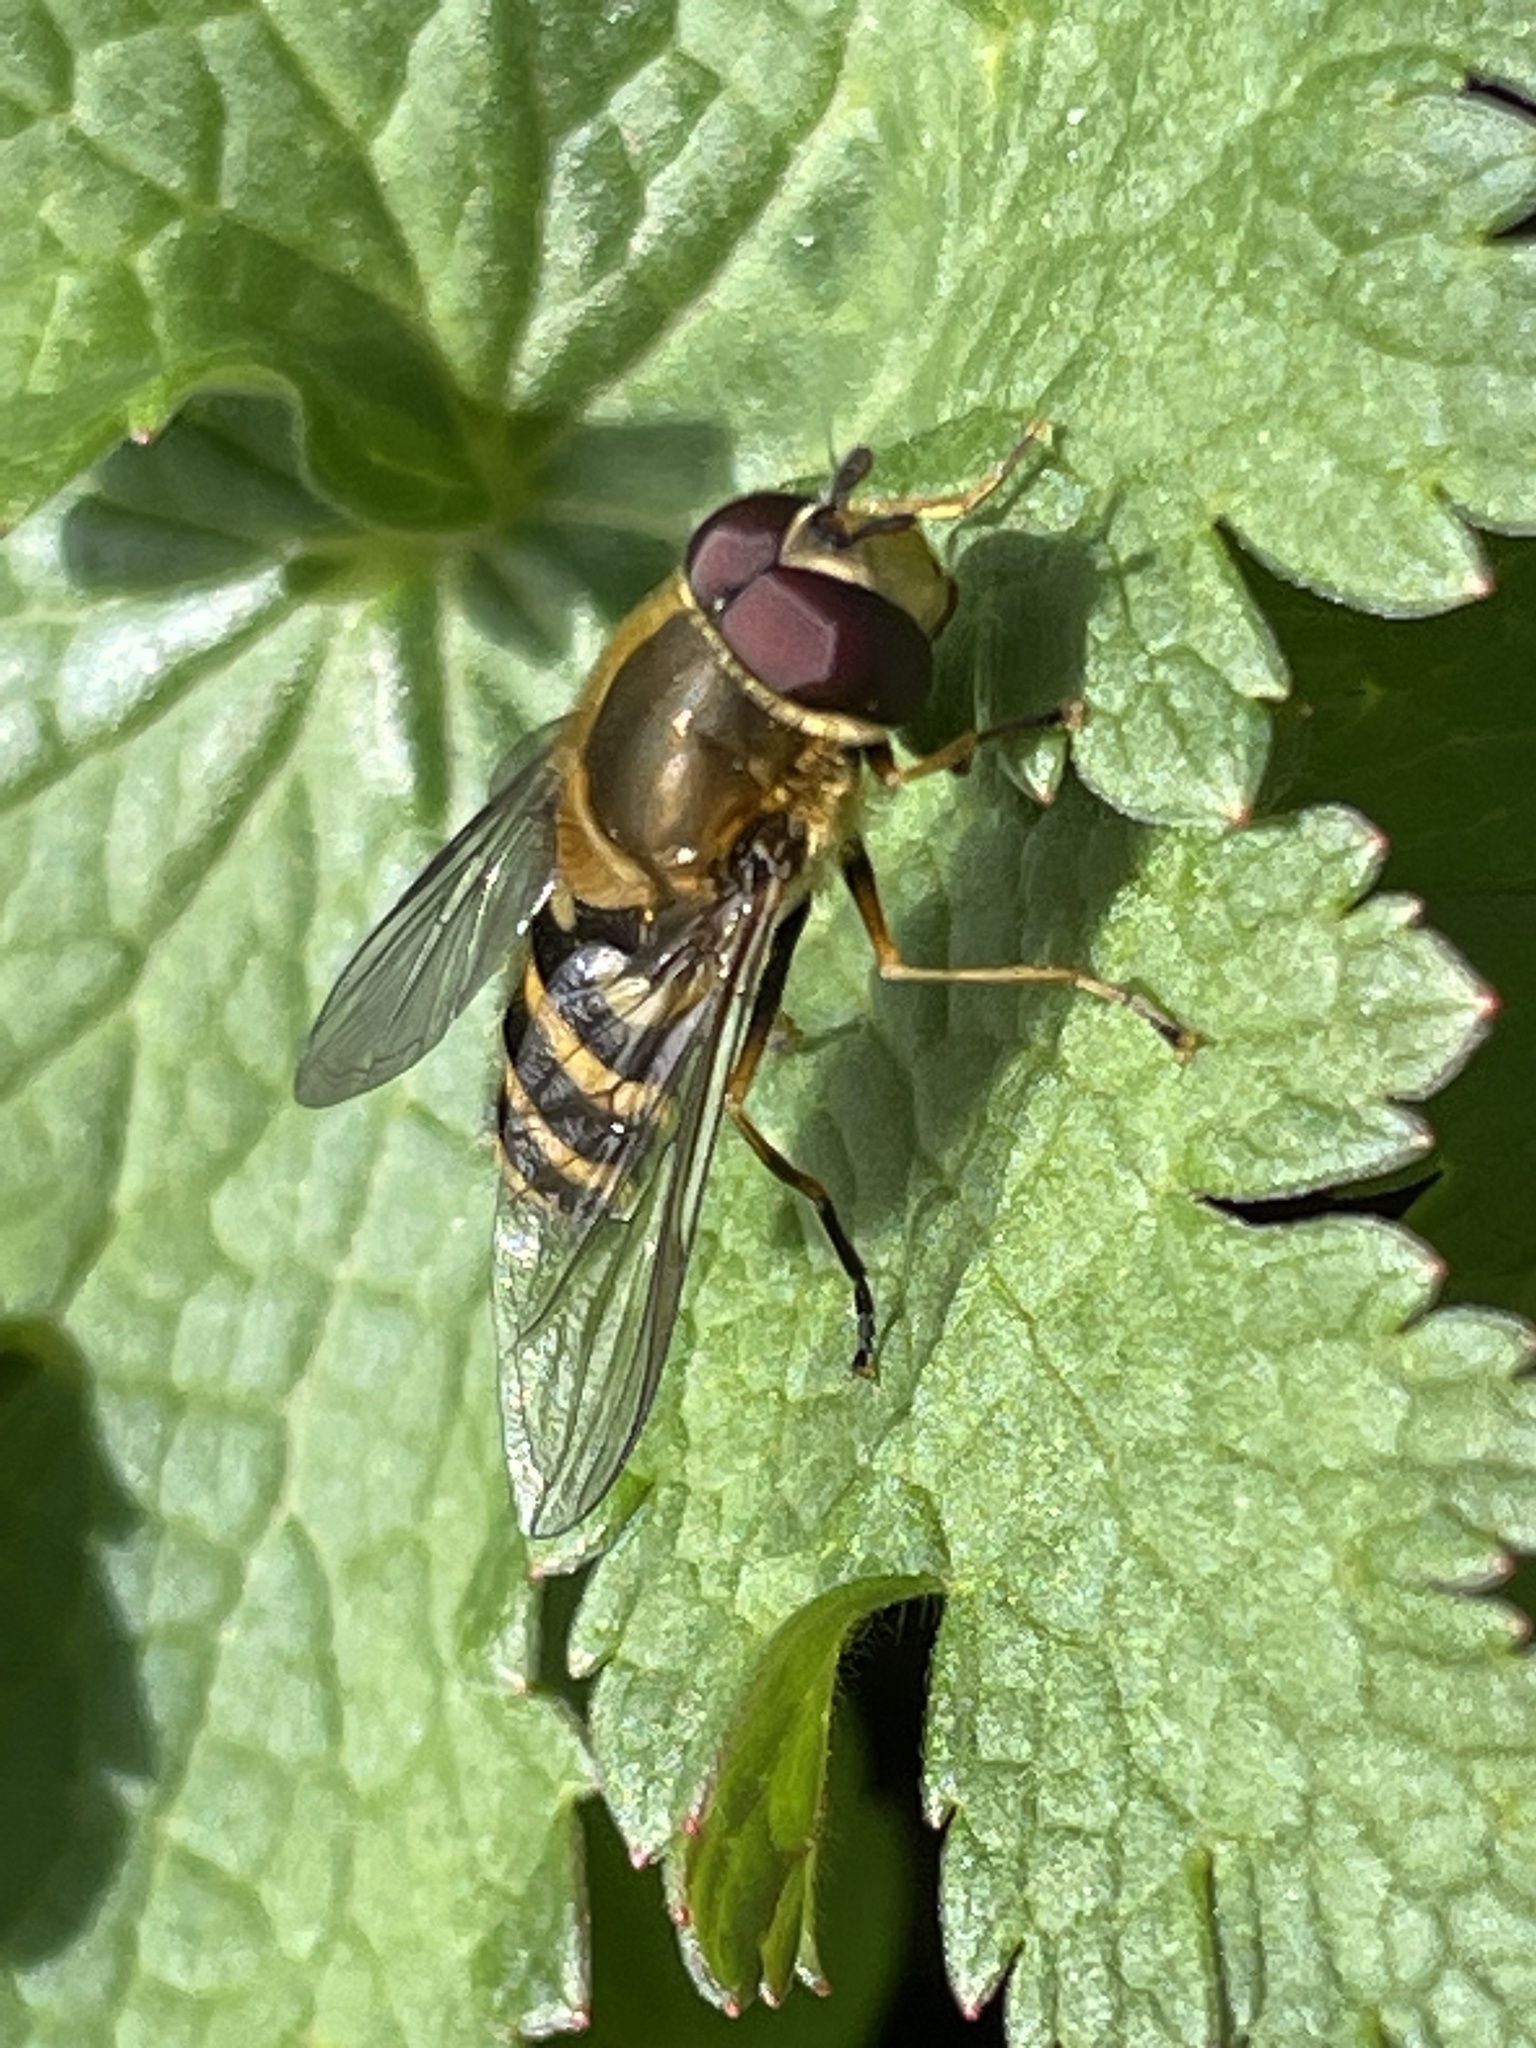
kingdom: Animalia
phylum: Arthropoda
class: Insecta
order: Diptera
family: Syrphidae
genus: Syrphus
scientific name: Syrphus
